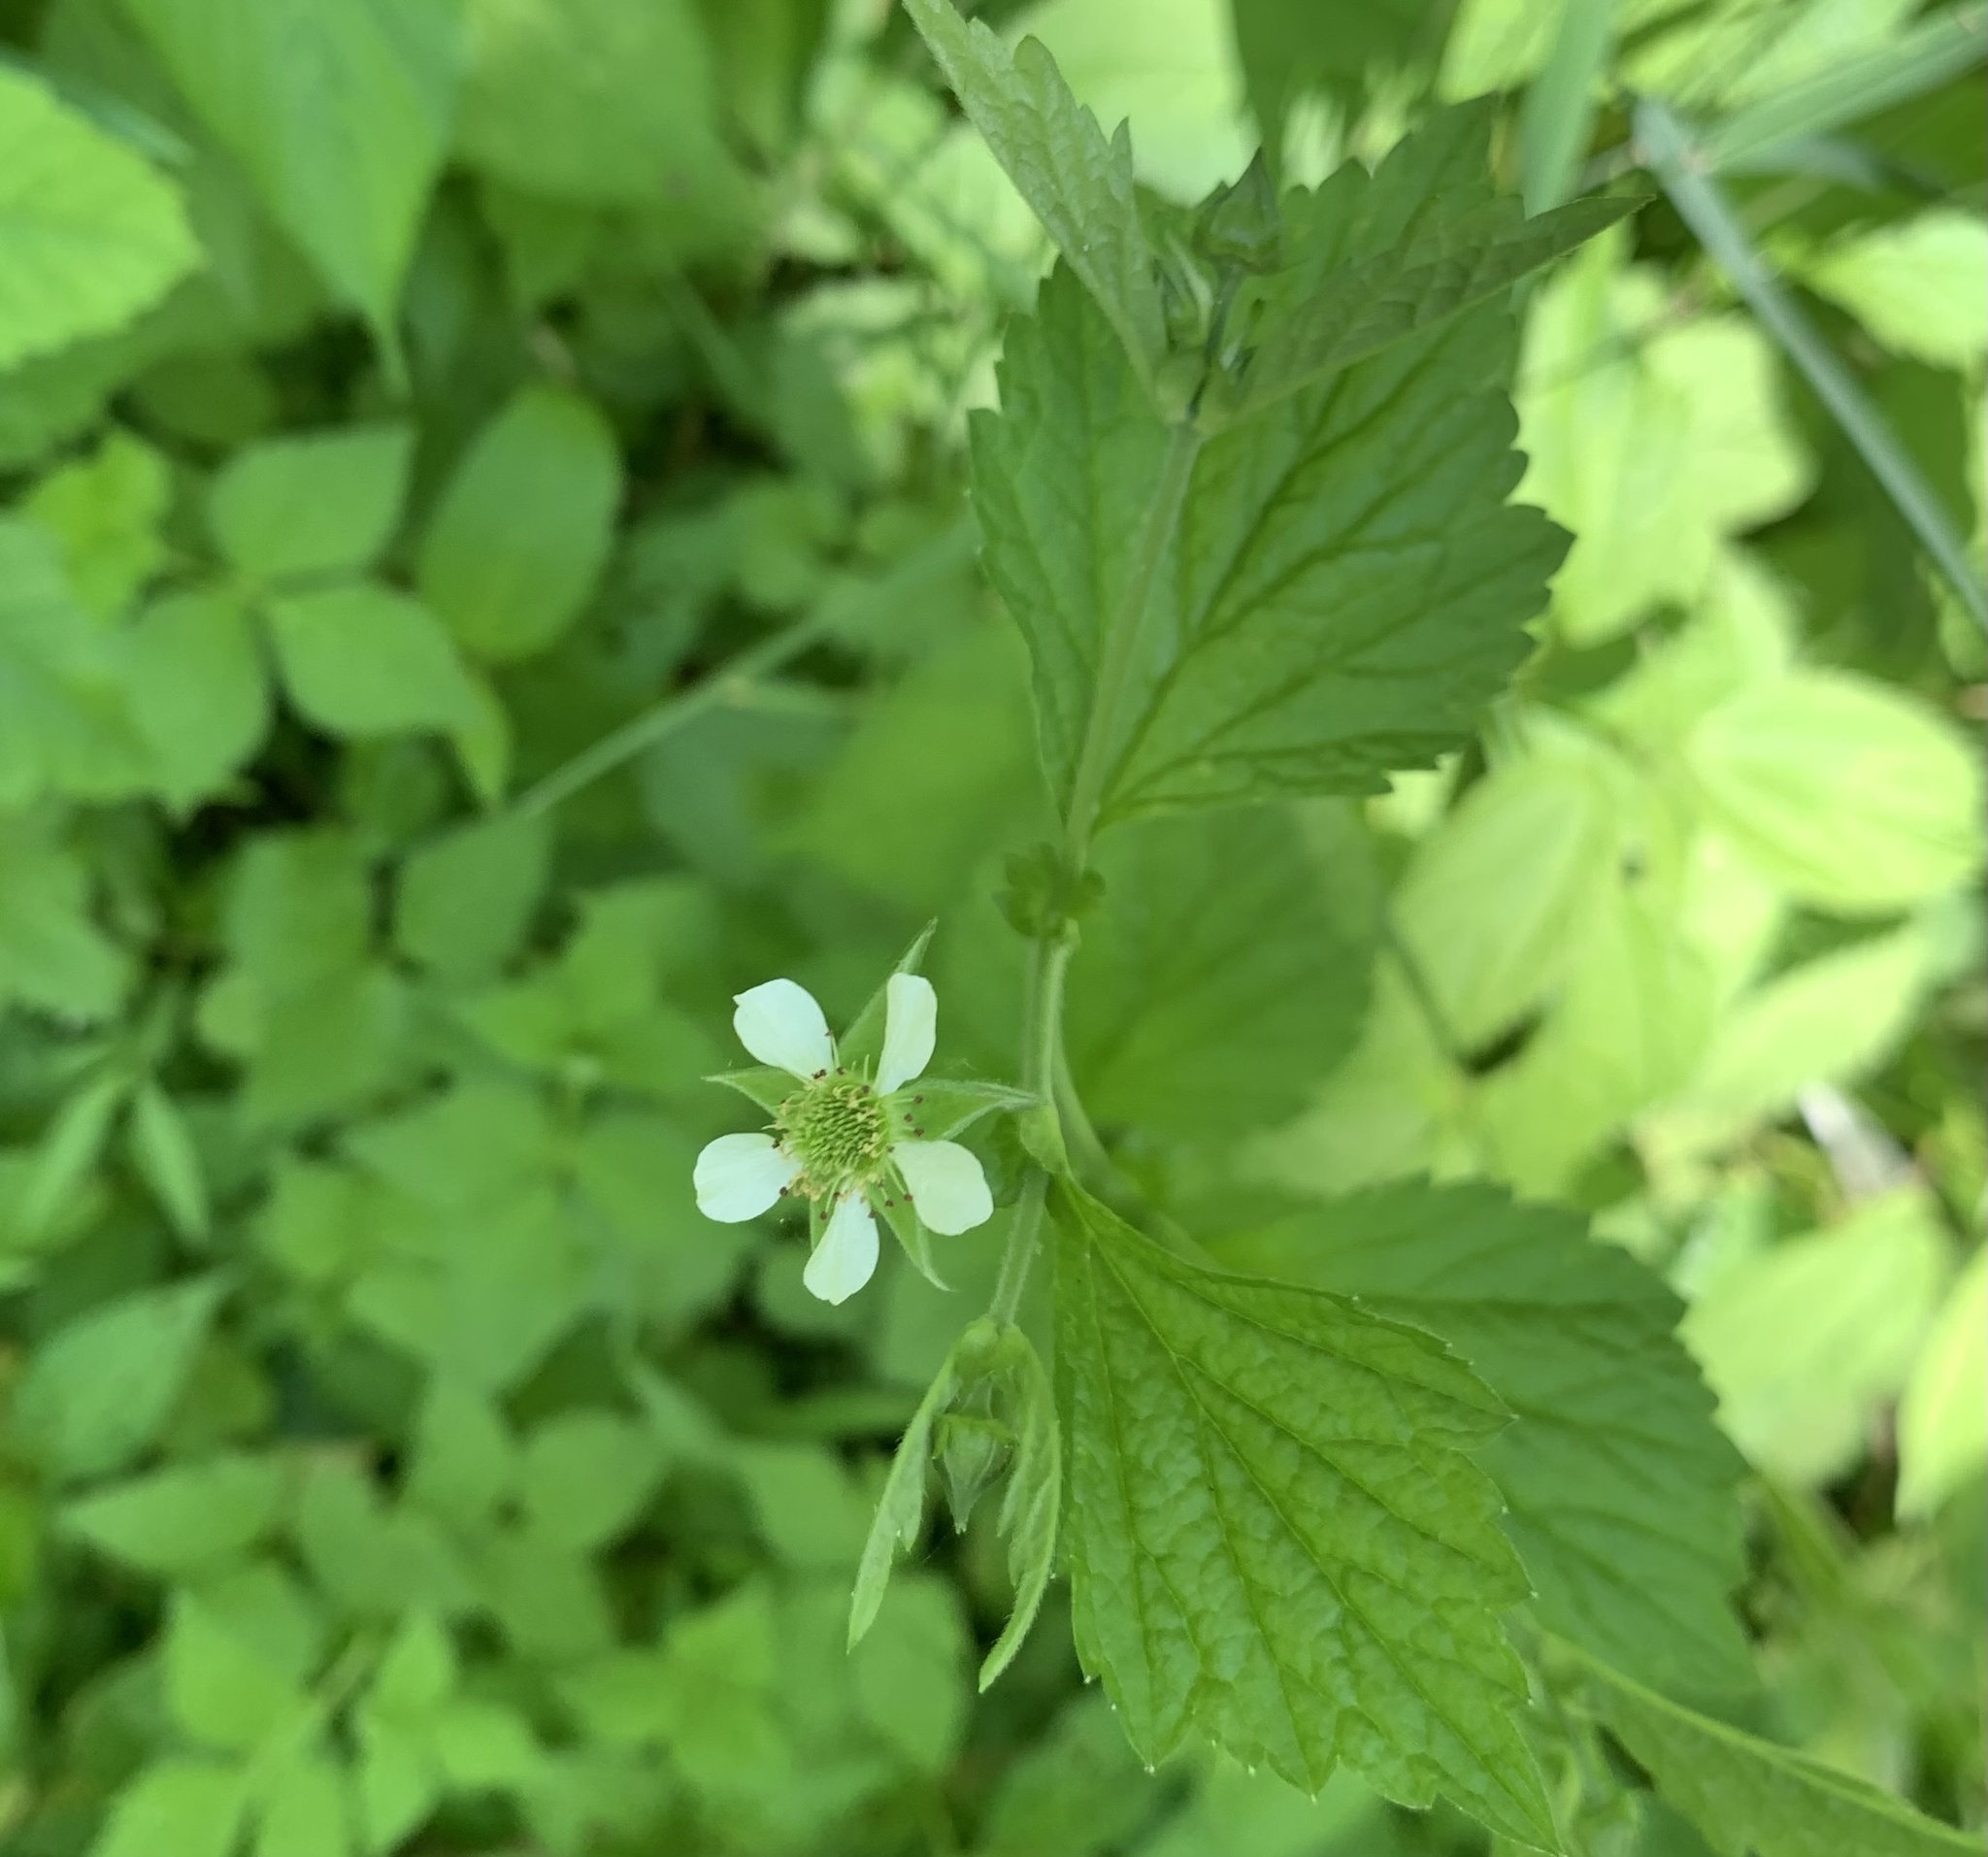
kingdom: Plantae
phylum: Tracheophyta
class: Magnoliopsida
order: Rosales
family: Rosaceae
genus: Geum
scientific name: Geum canadense
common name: White avens
